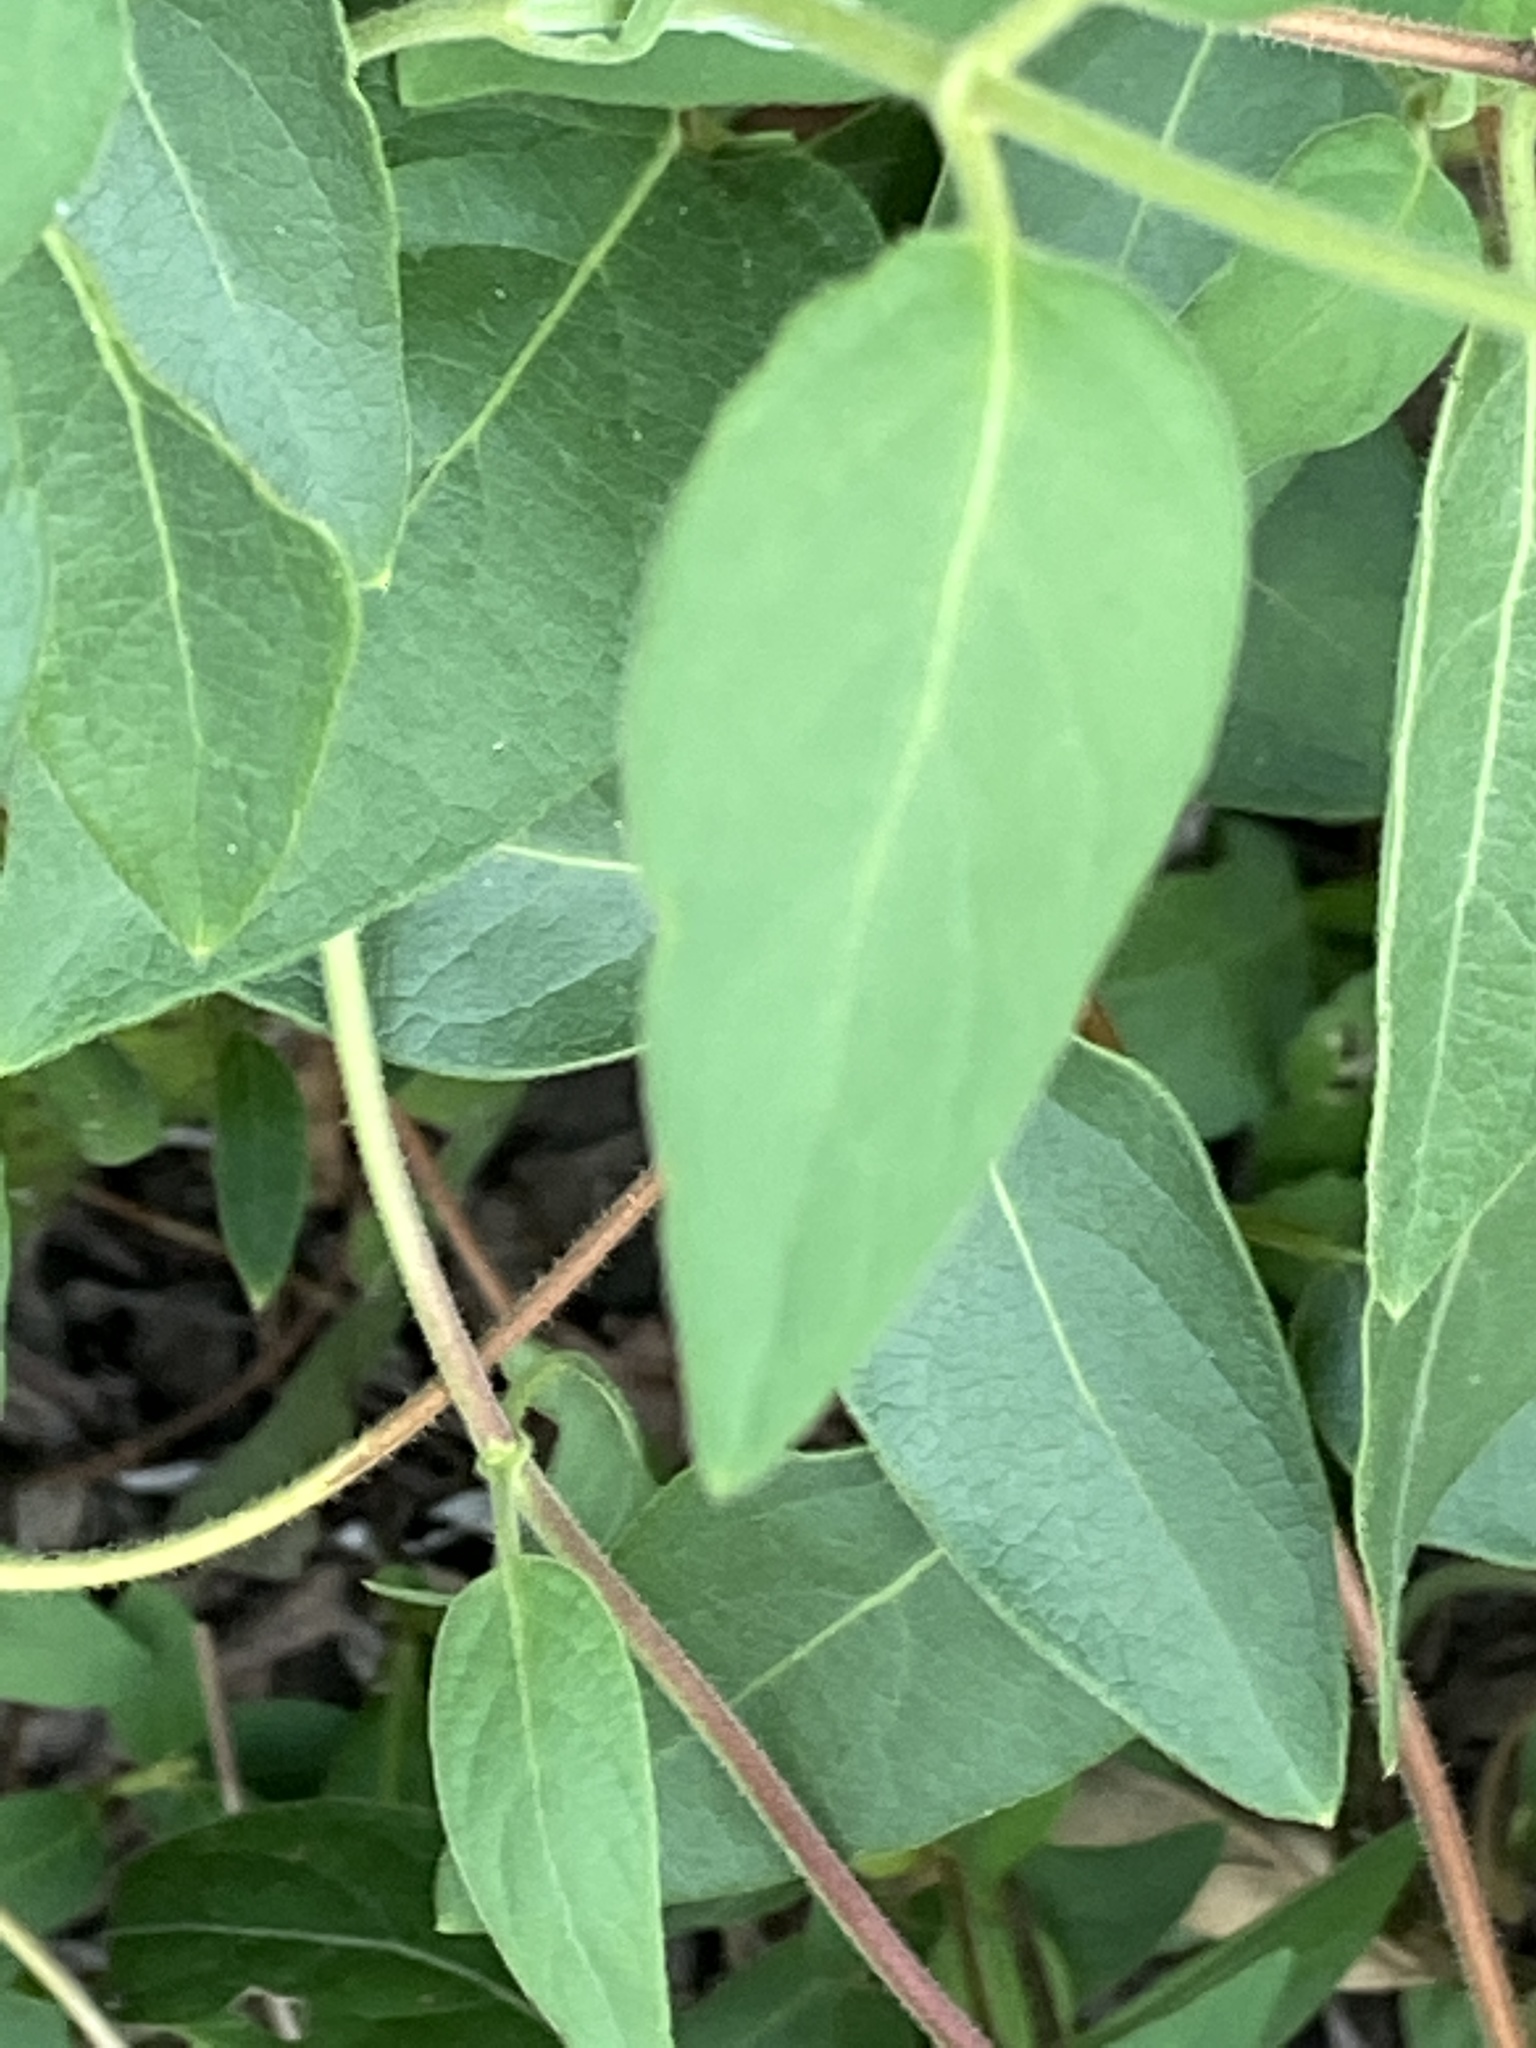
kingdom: Plantae
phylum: Tracheophyta
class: Magnoliopsida
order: Dipsacales
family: Caprifoliaceae
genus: Lonicera
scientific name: Lonicera japonica
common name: Japanese honeysuckle
